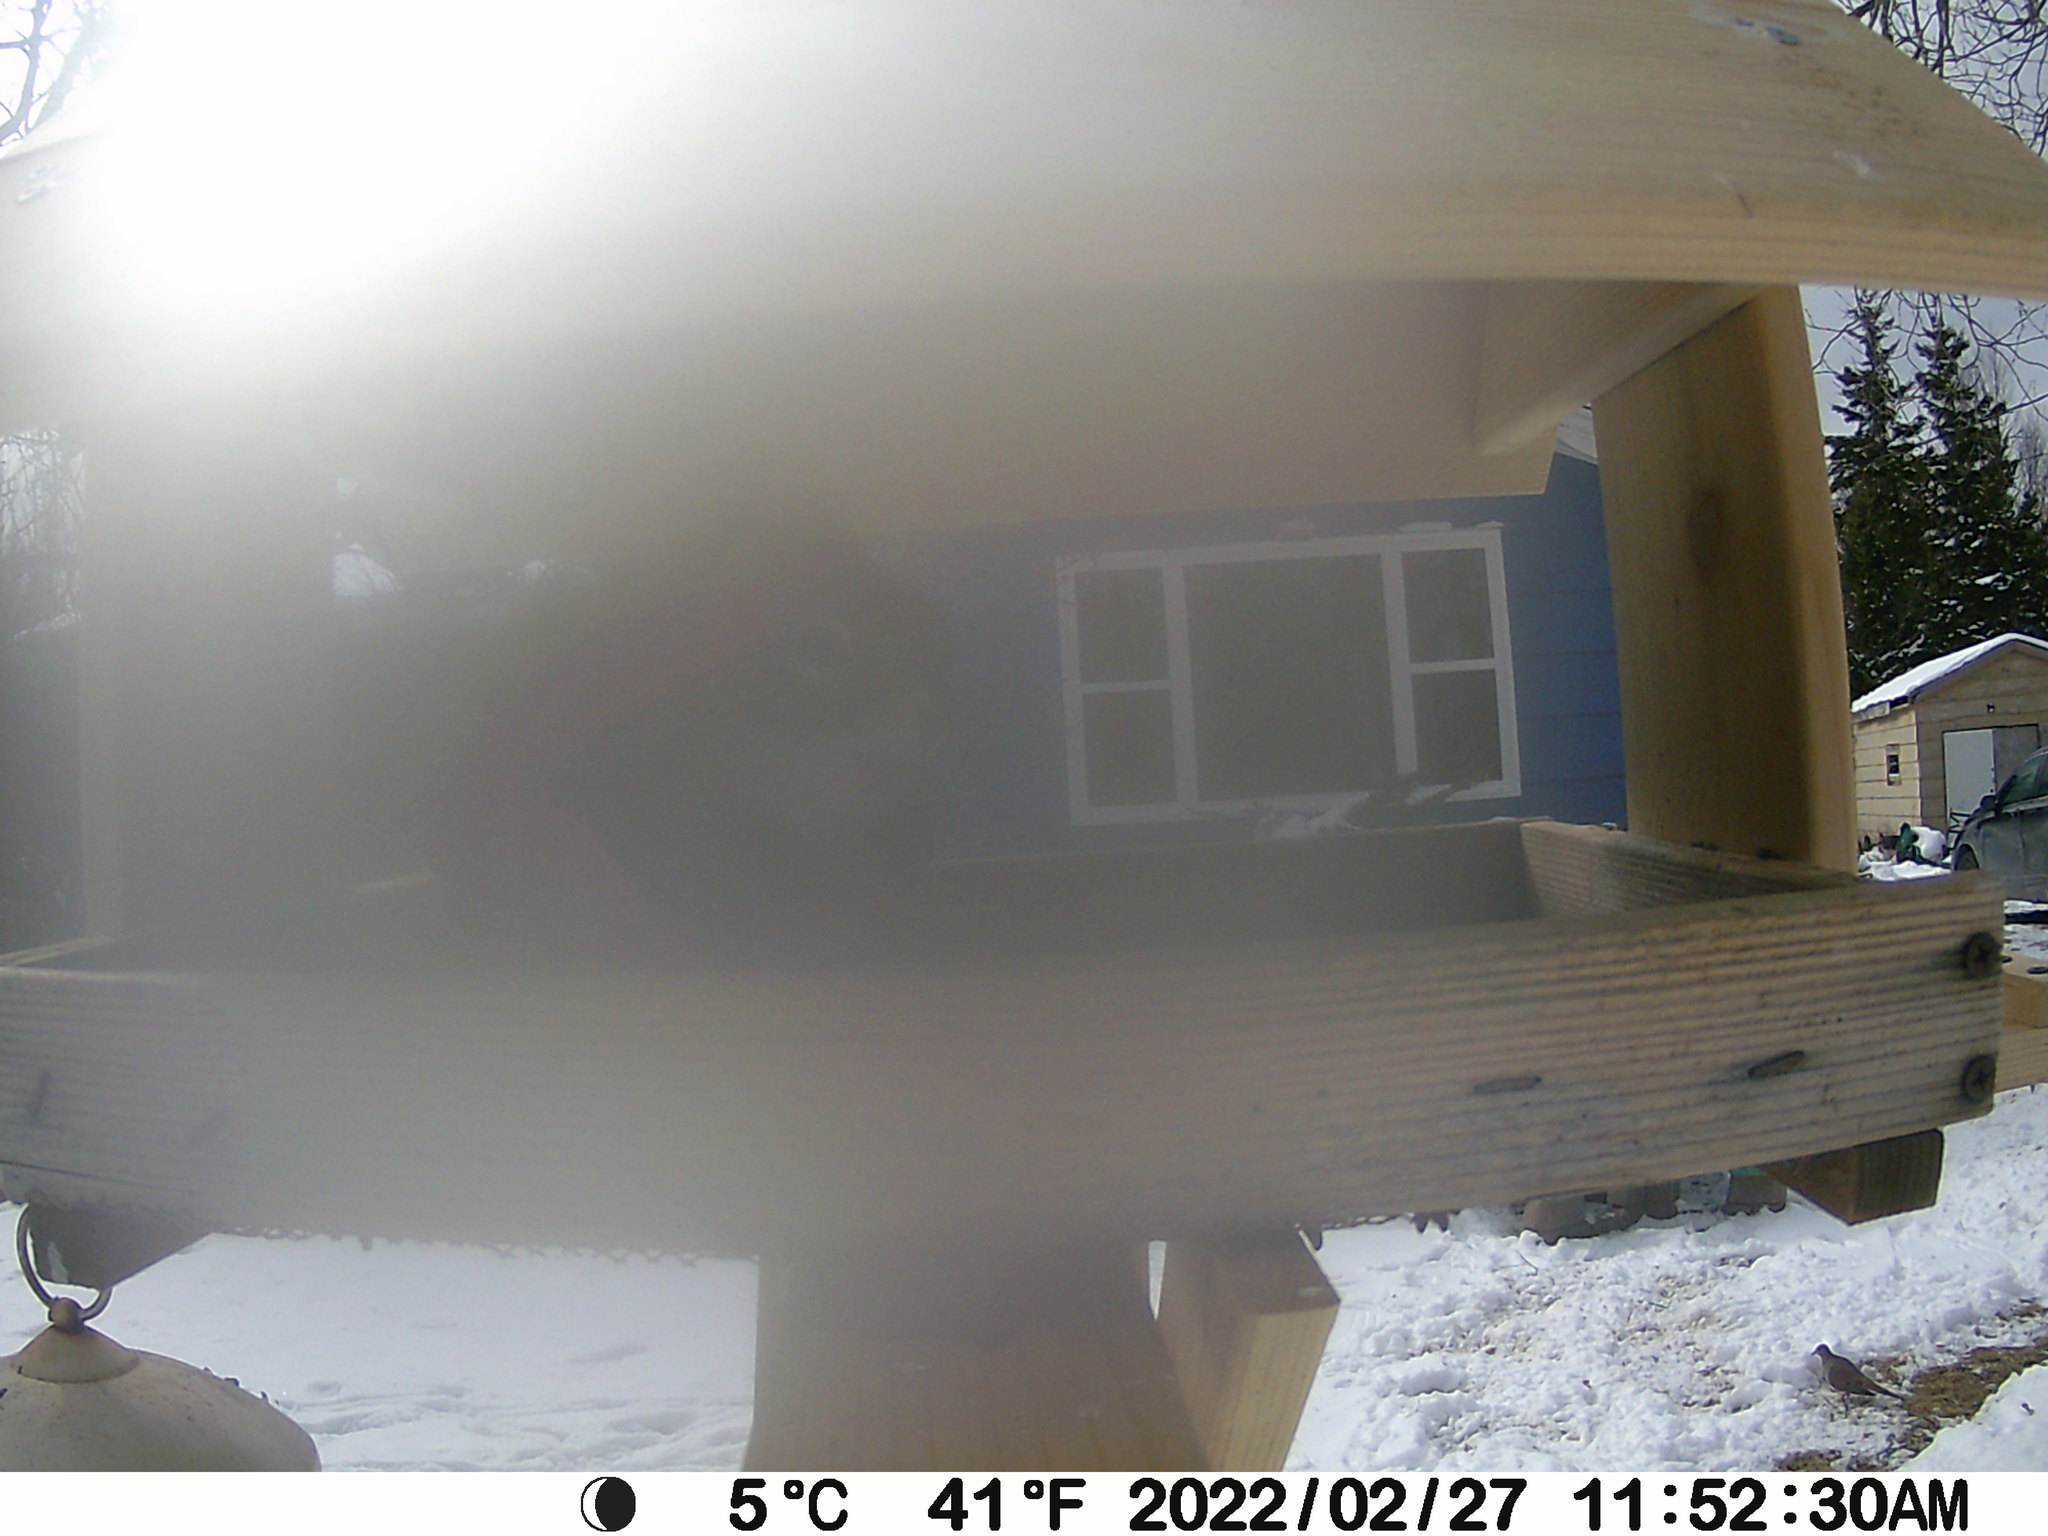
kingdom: Animalia
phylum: Chordata
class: Aves
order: Columbiformes
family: Columbidae
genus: Zenaida
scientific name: Zenaida macroura
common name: Mourning dove
